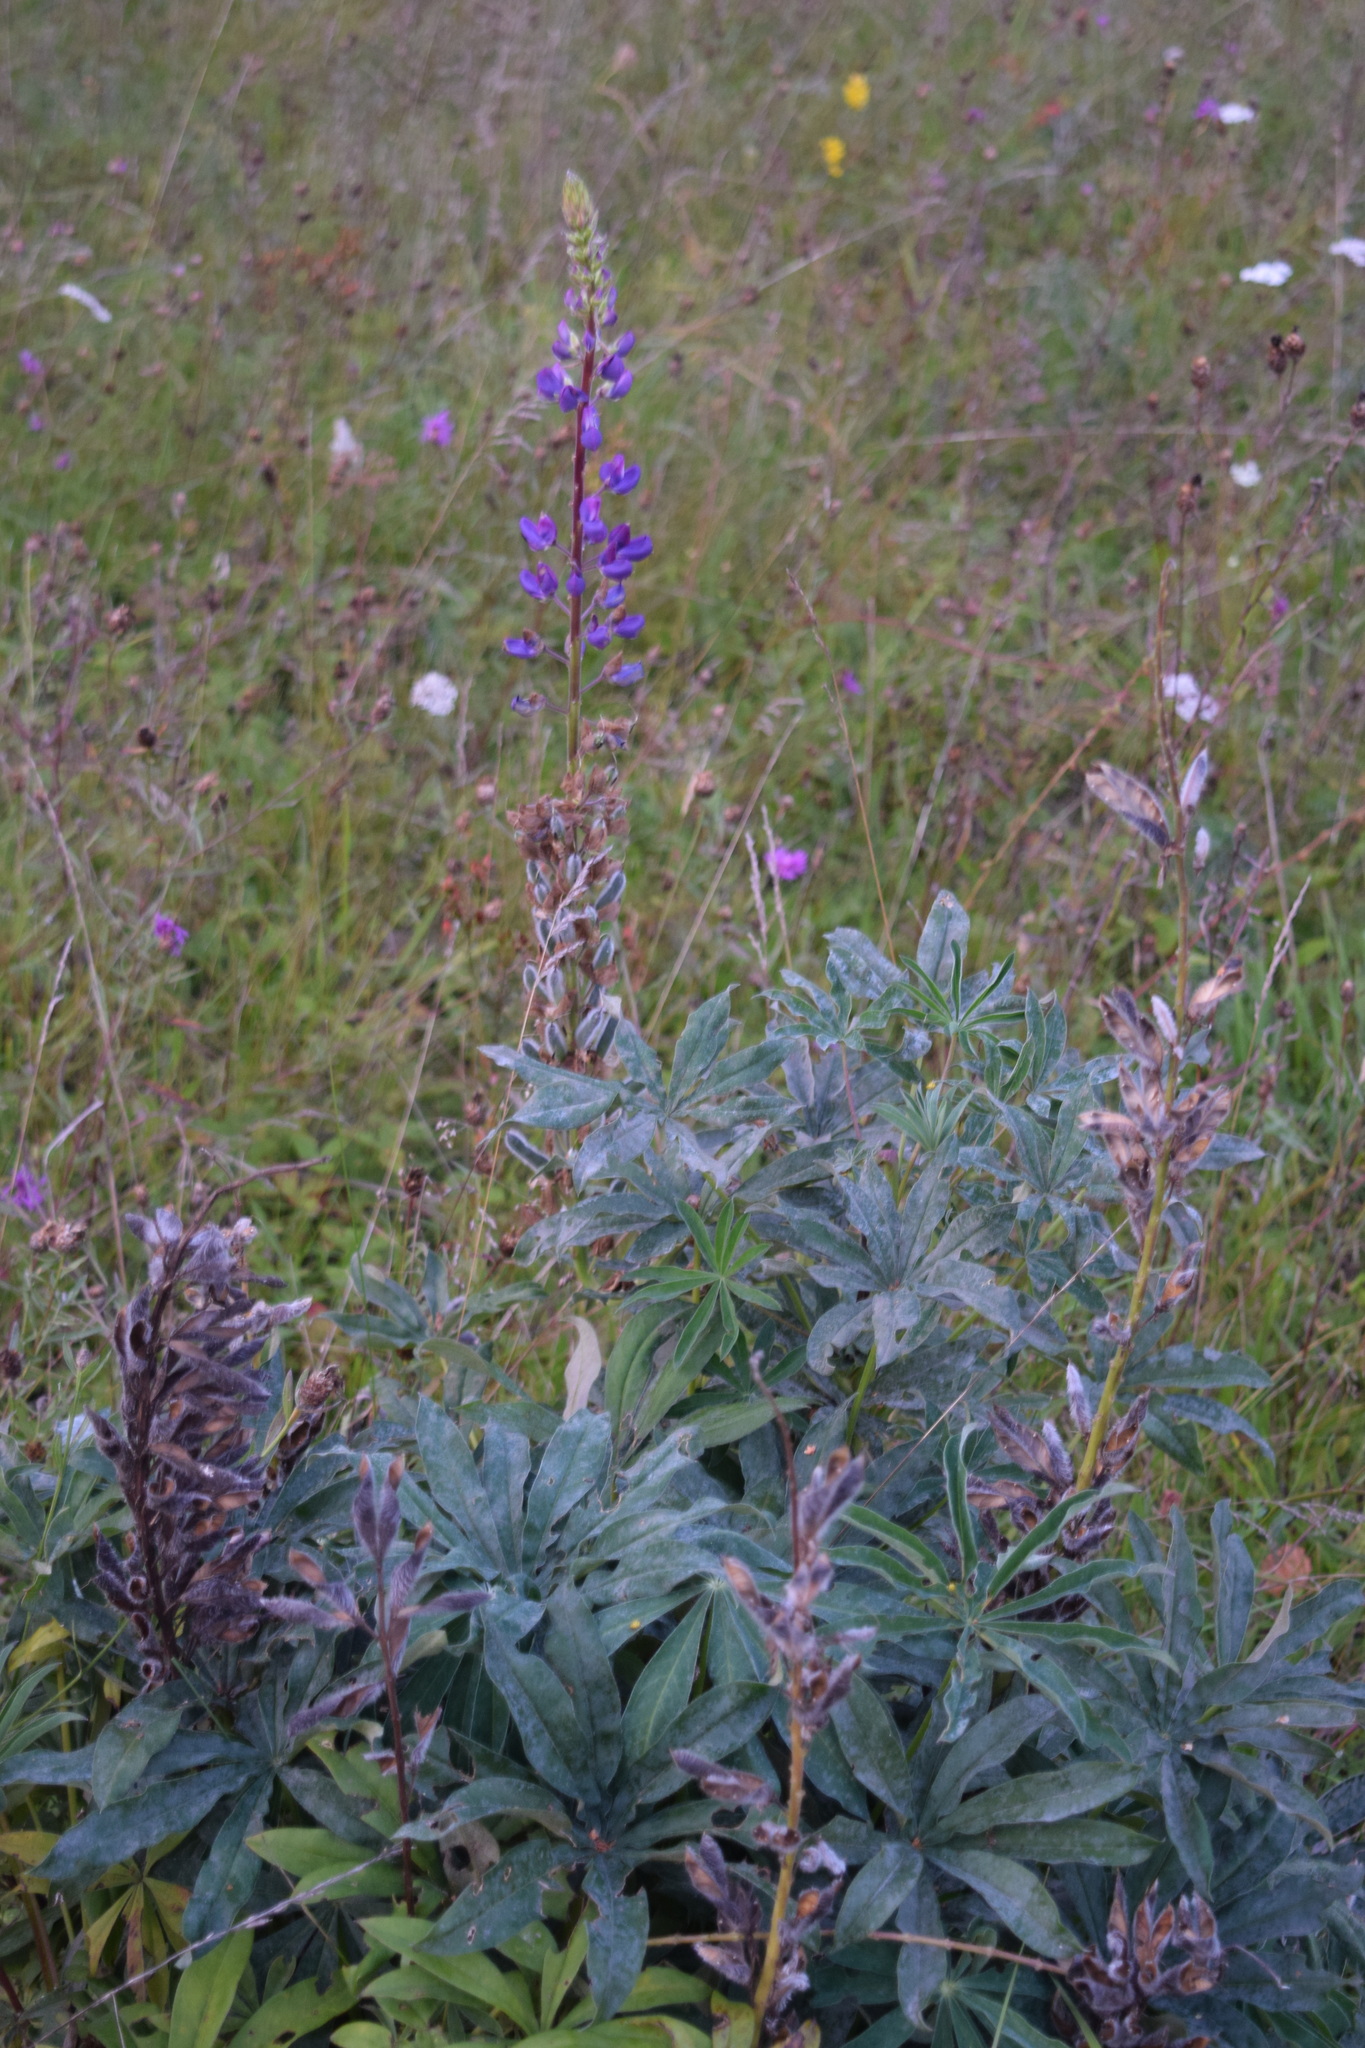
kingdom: Plantae
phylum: Tracheophyta
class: Magnoliopsida
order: Fabales
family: Fabaceae
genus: Lupinus
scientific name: Lupinus polyphyllus
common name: Garden lupin
